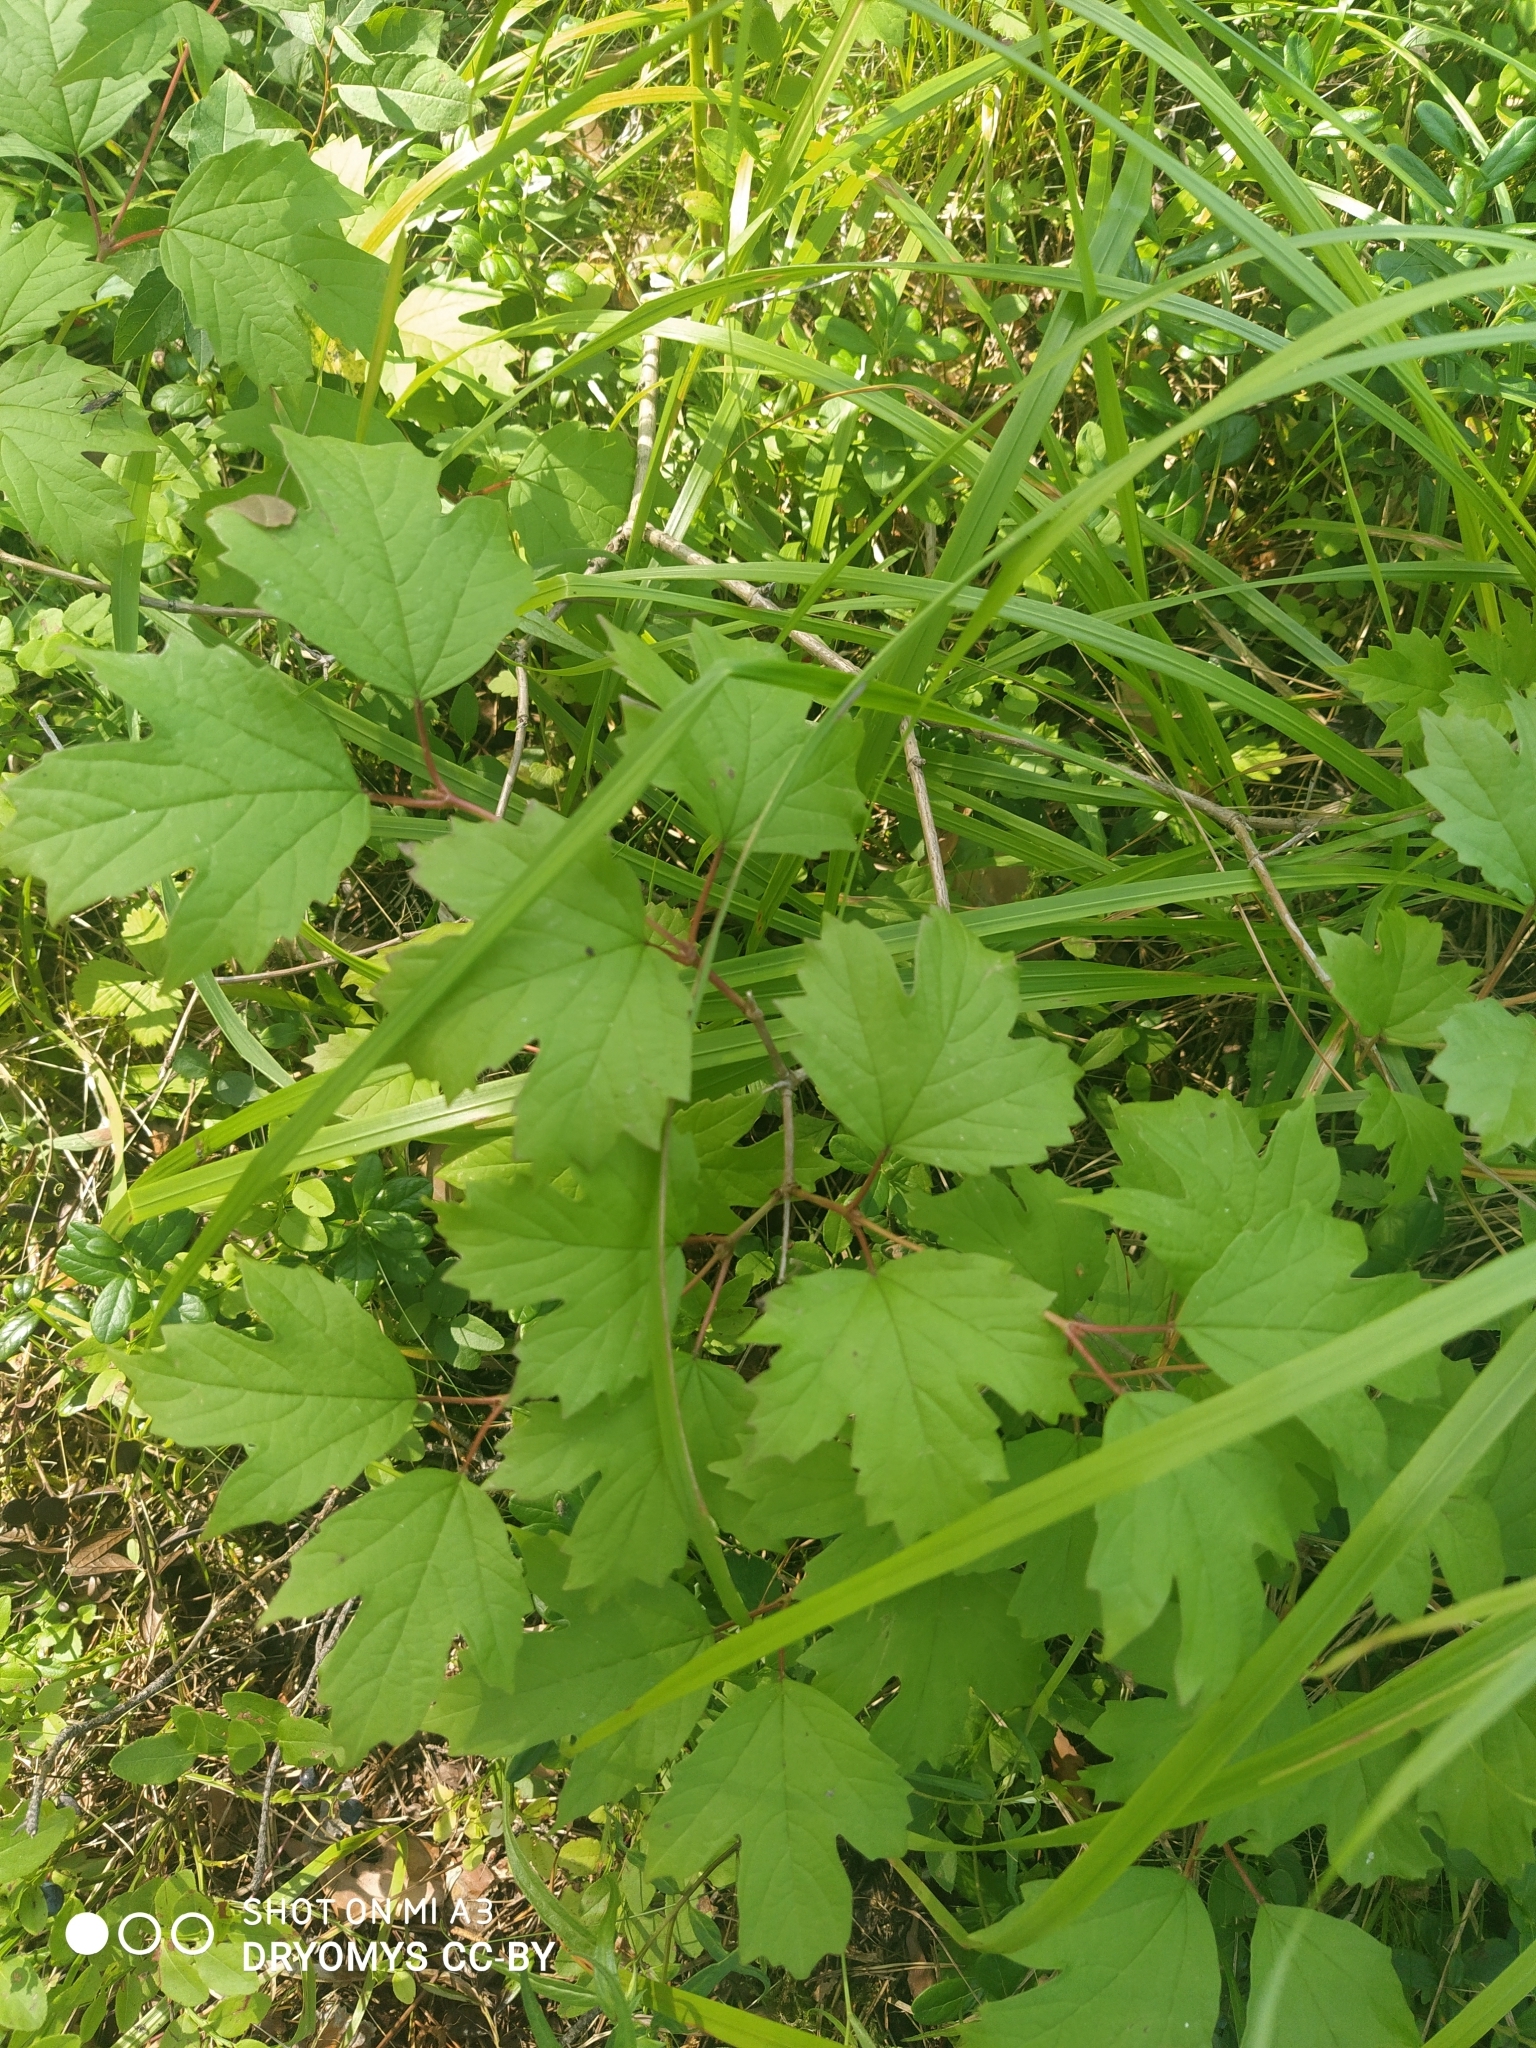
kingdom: Plantae
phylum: Tracheophyta
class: Magnoliopsida
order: Dipsacales
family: Viburnaceae
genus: Viburnum
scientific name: Viburnum opulus
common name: Guelder-rose
